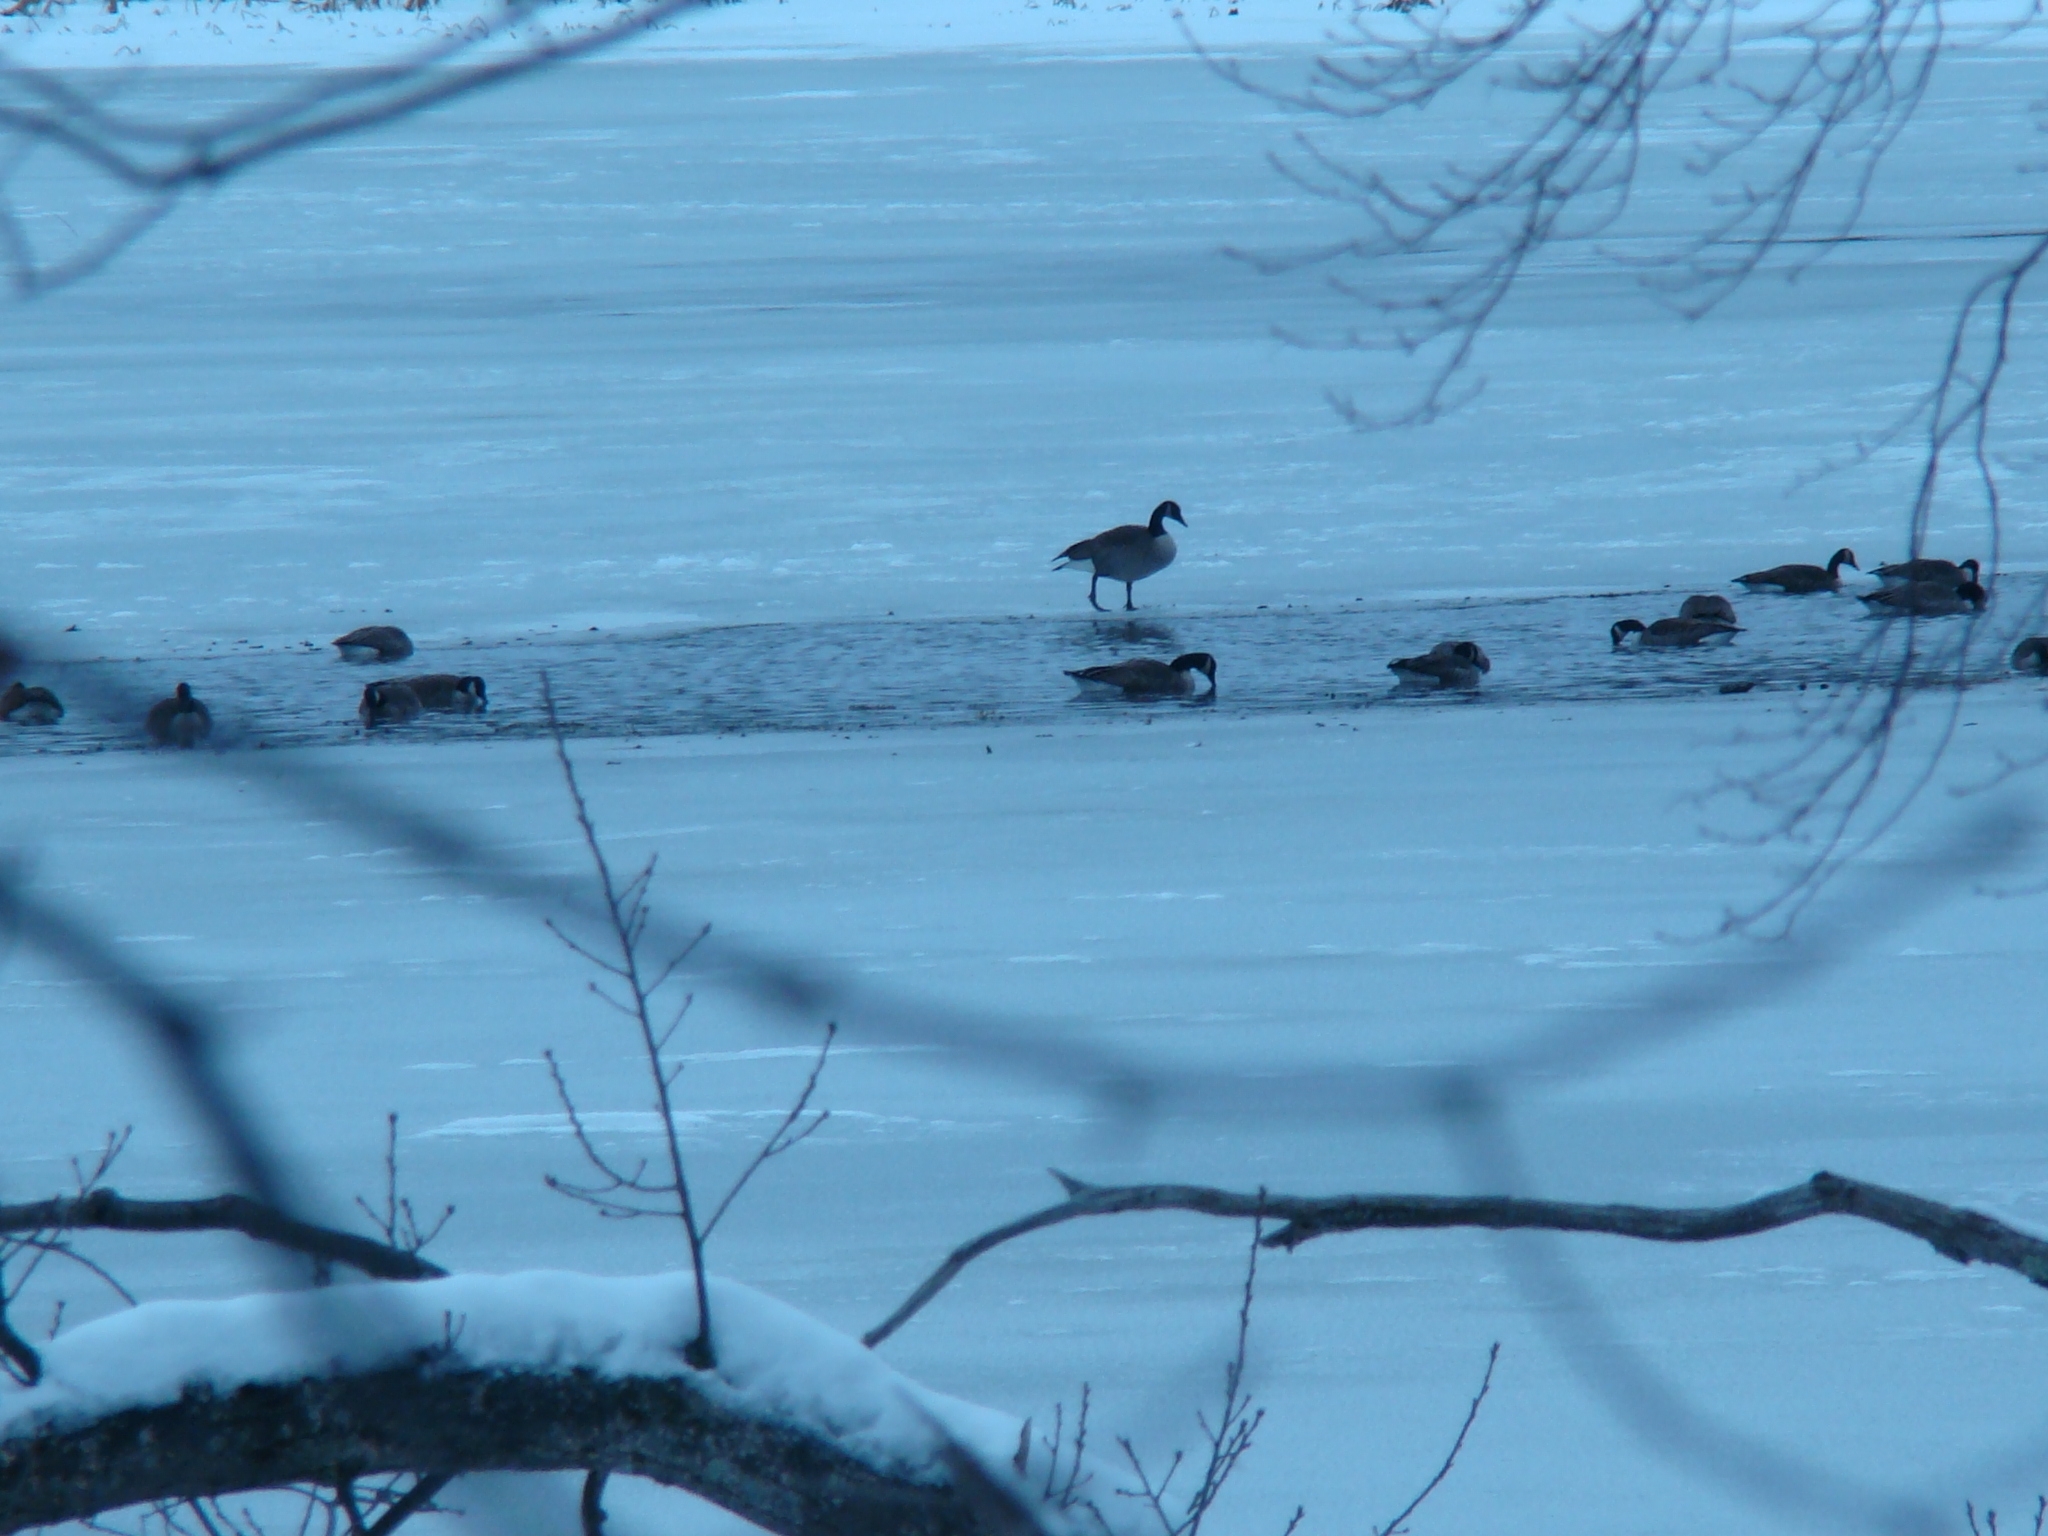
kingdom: Animalia
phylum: Chordata
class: Aves
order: Anseriformes
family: Anatidae
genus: Branta
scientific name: Branta canadensis
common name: Canada goose
